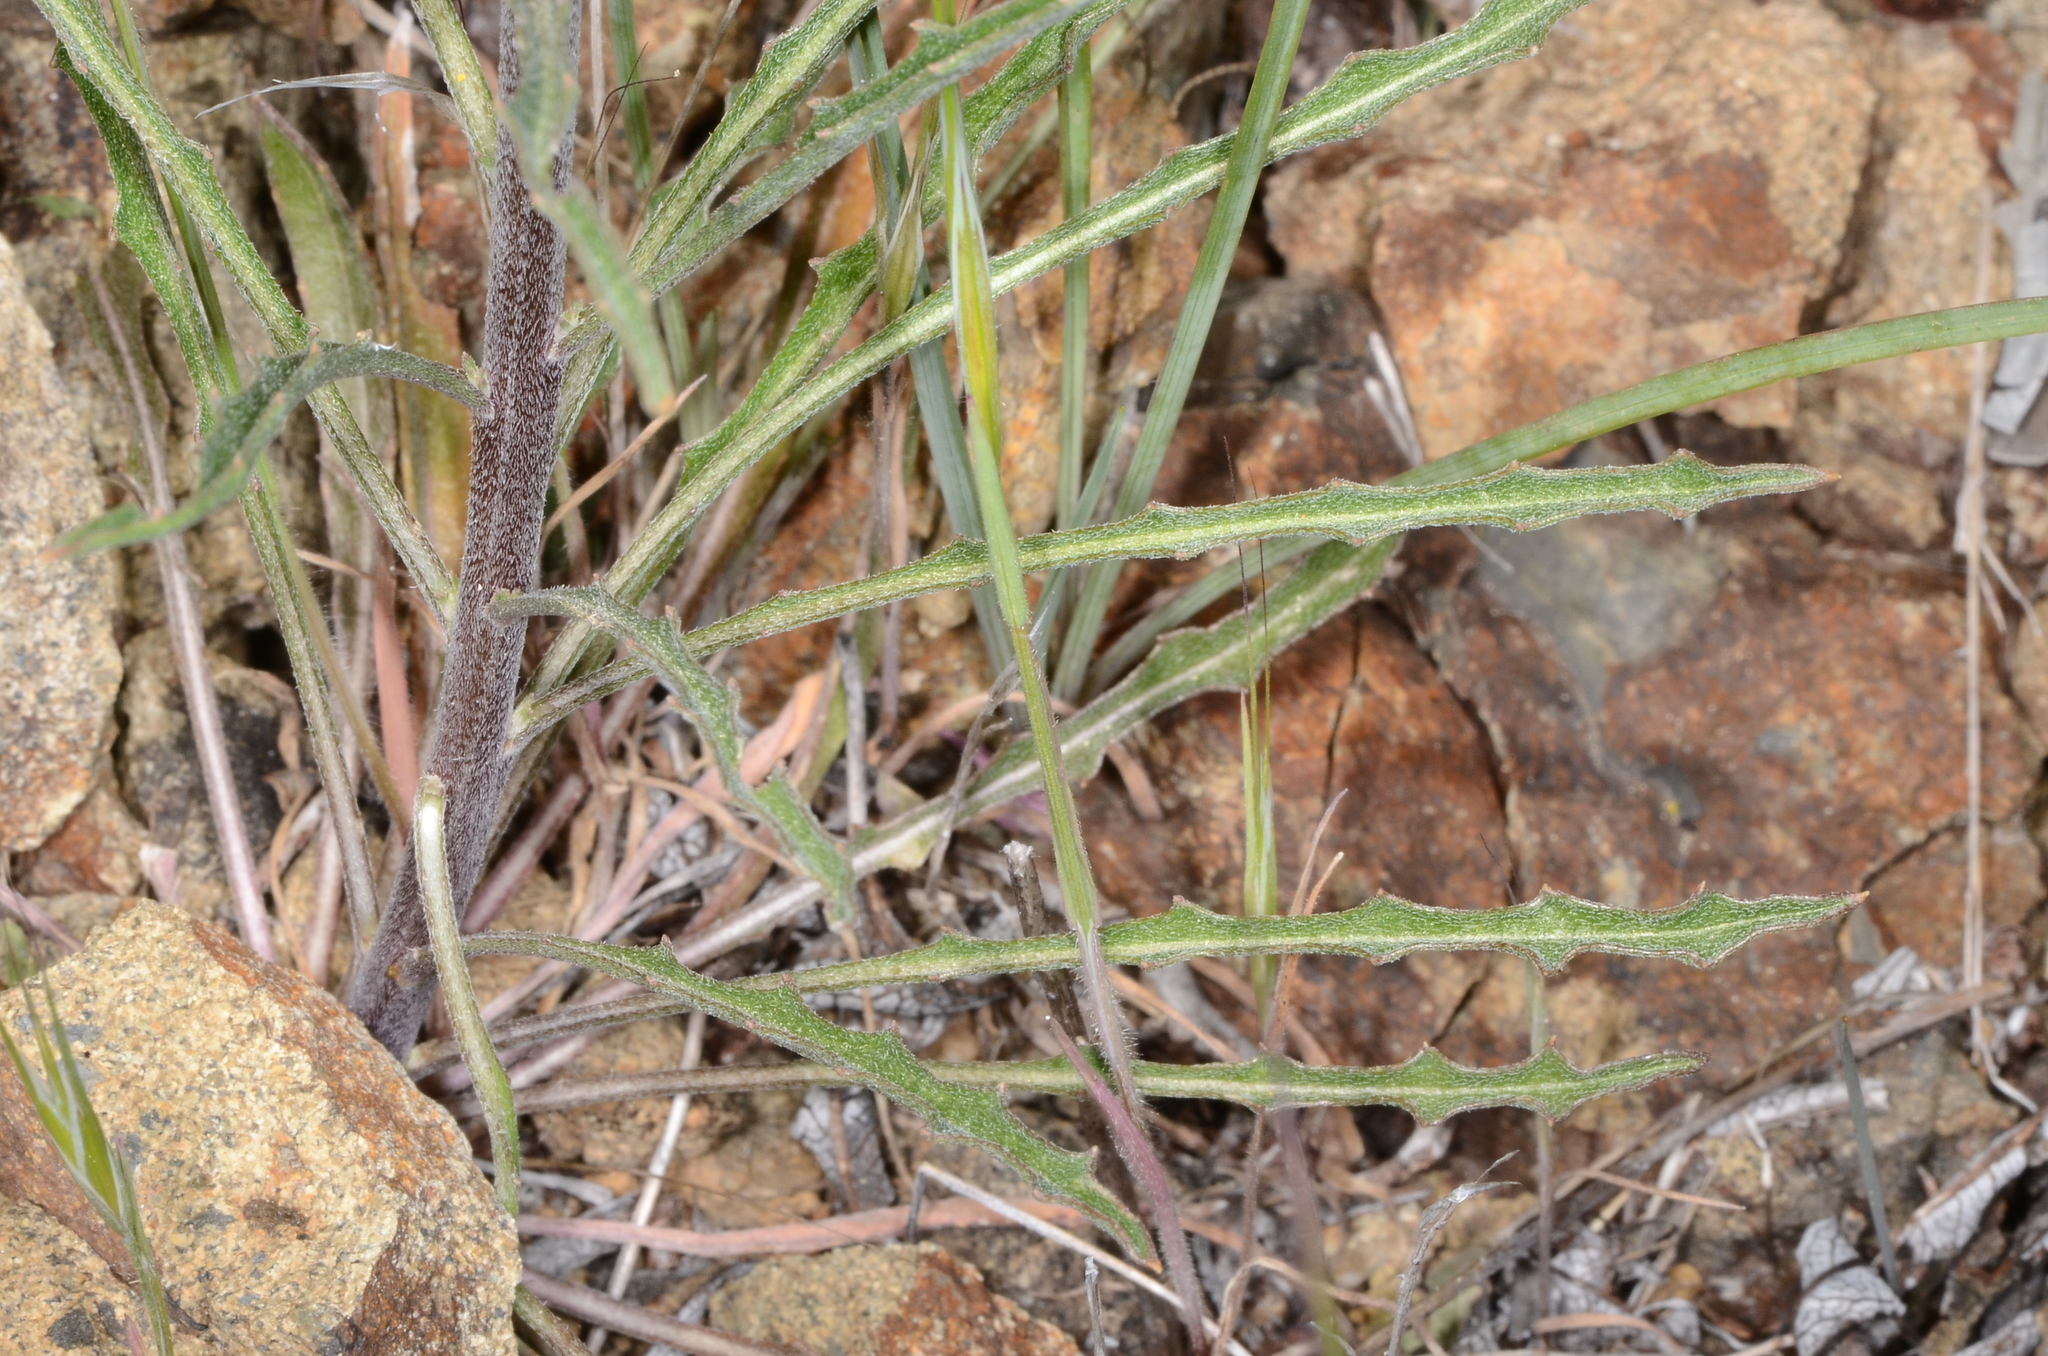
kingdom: Plantae
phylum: Tracheophyta
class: Magnoliopsida
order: Brassicales
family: Brassicaceae
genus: Erysimum
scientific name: Erysimum capitatum
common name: Western wallflower
